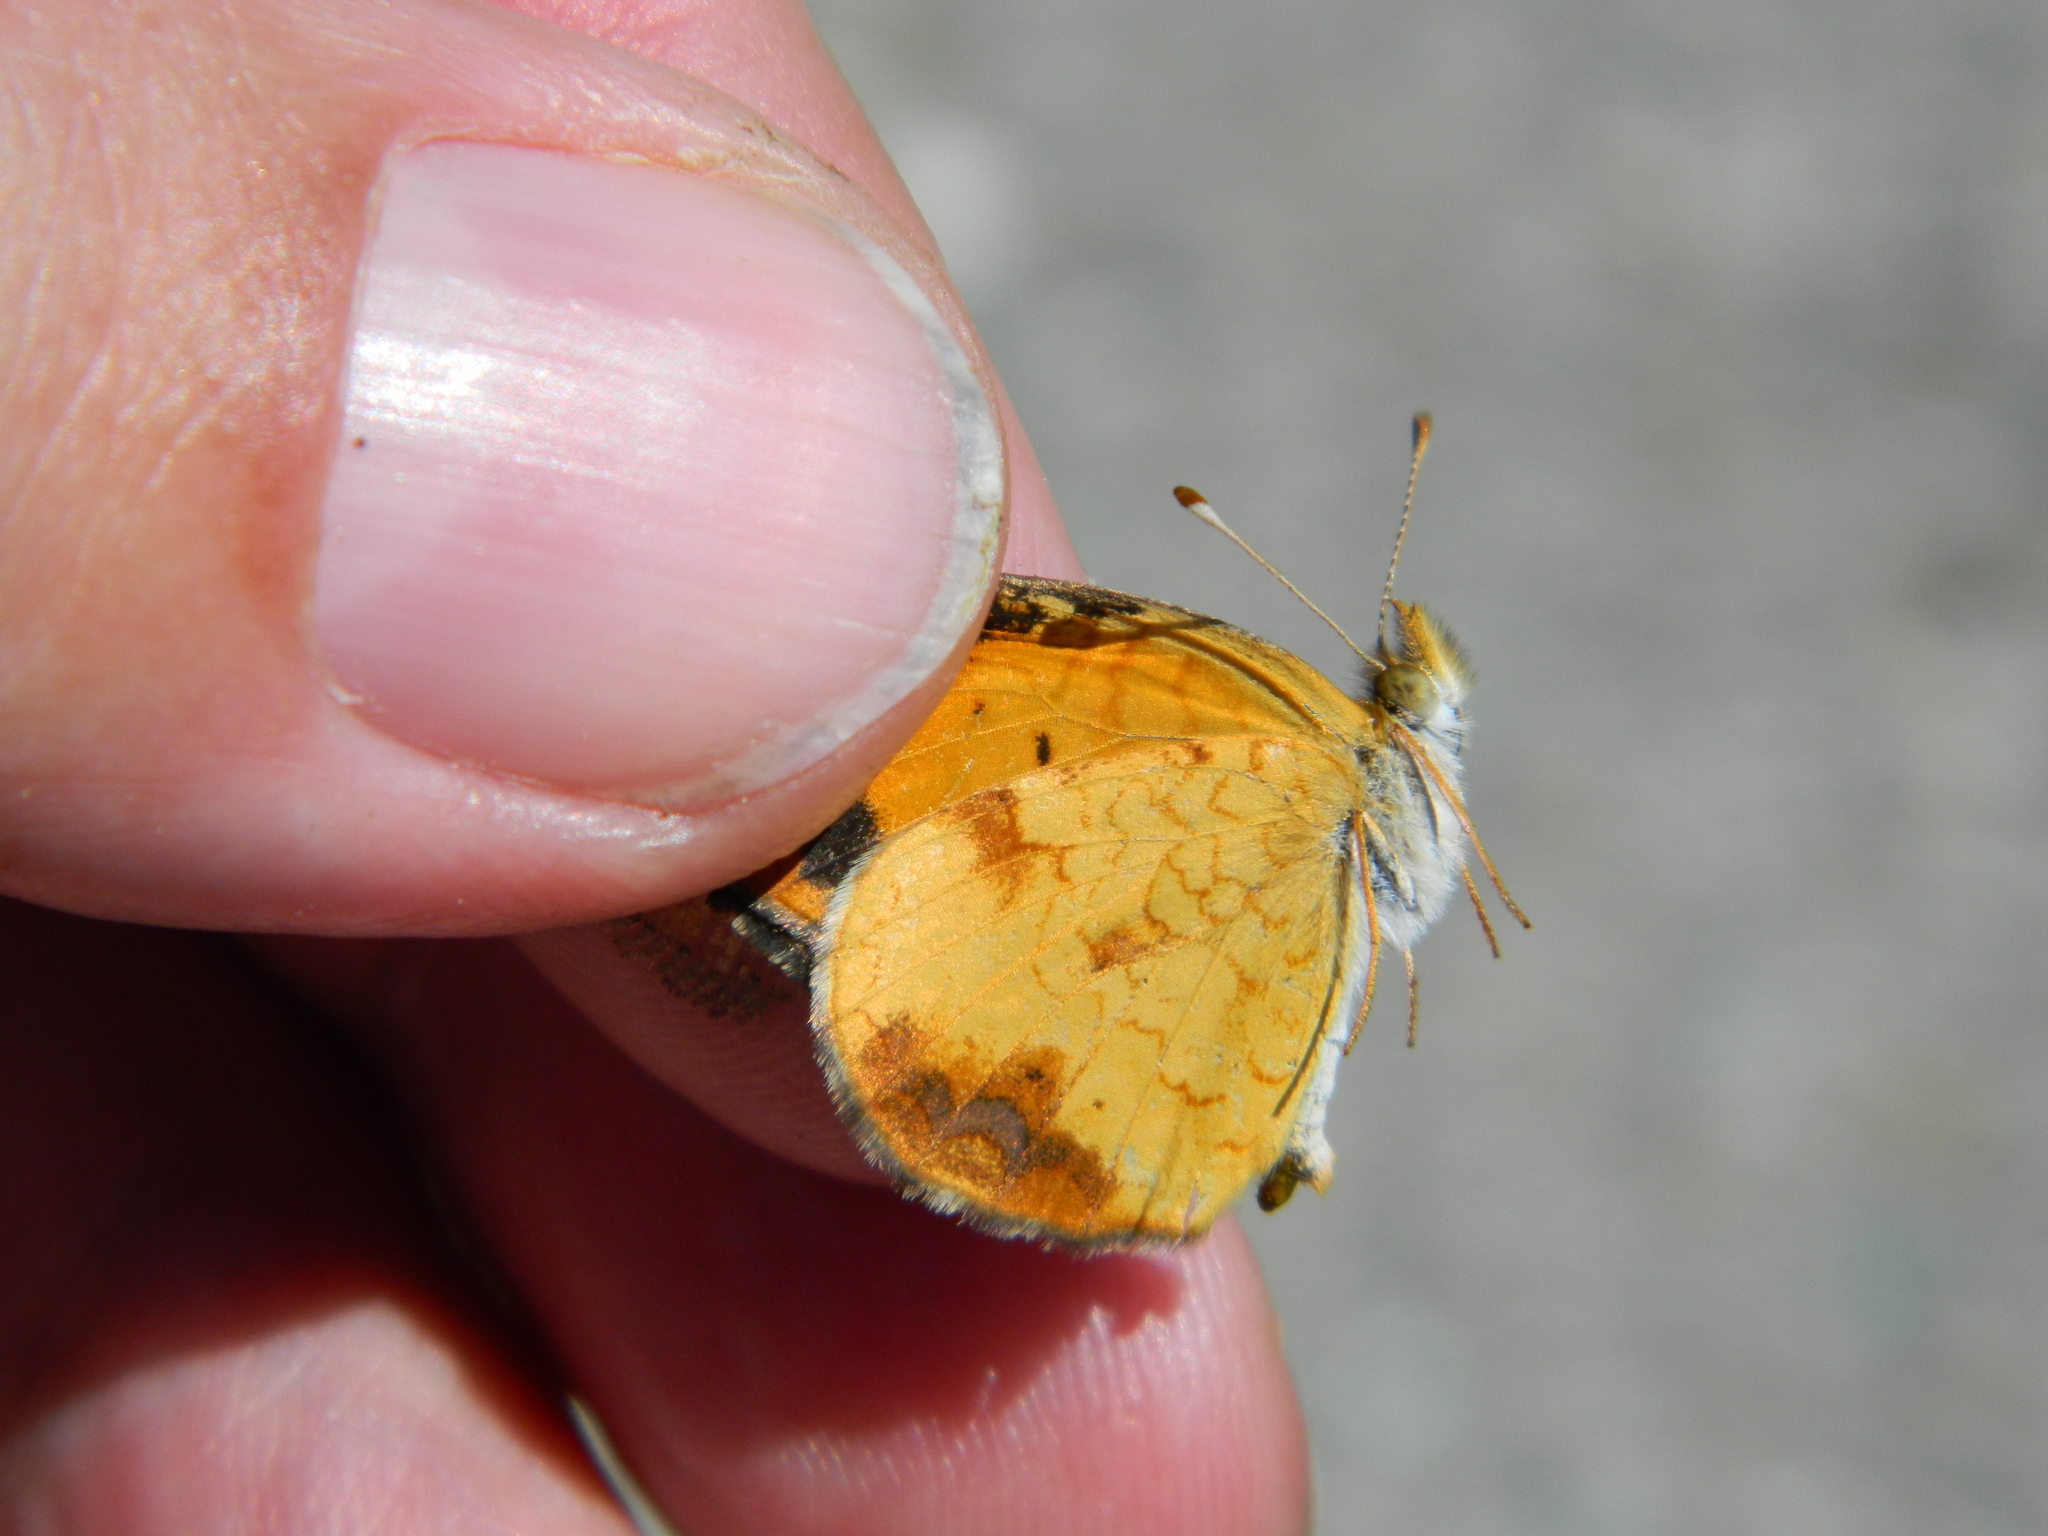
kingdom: Animalia
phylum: Arthropoda
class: Insecta
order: Lepidoptera
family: Nymphalidae
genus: Phyciodes
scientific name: Phyciodes tharos
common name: Pearl crescent
